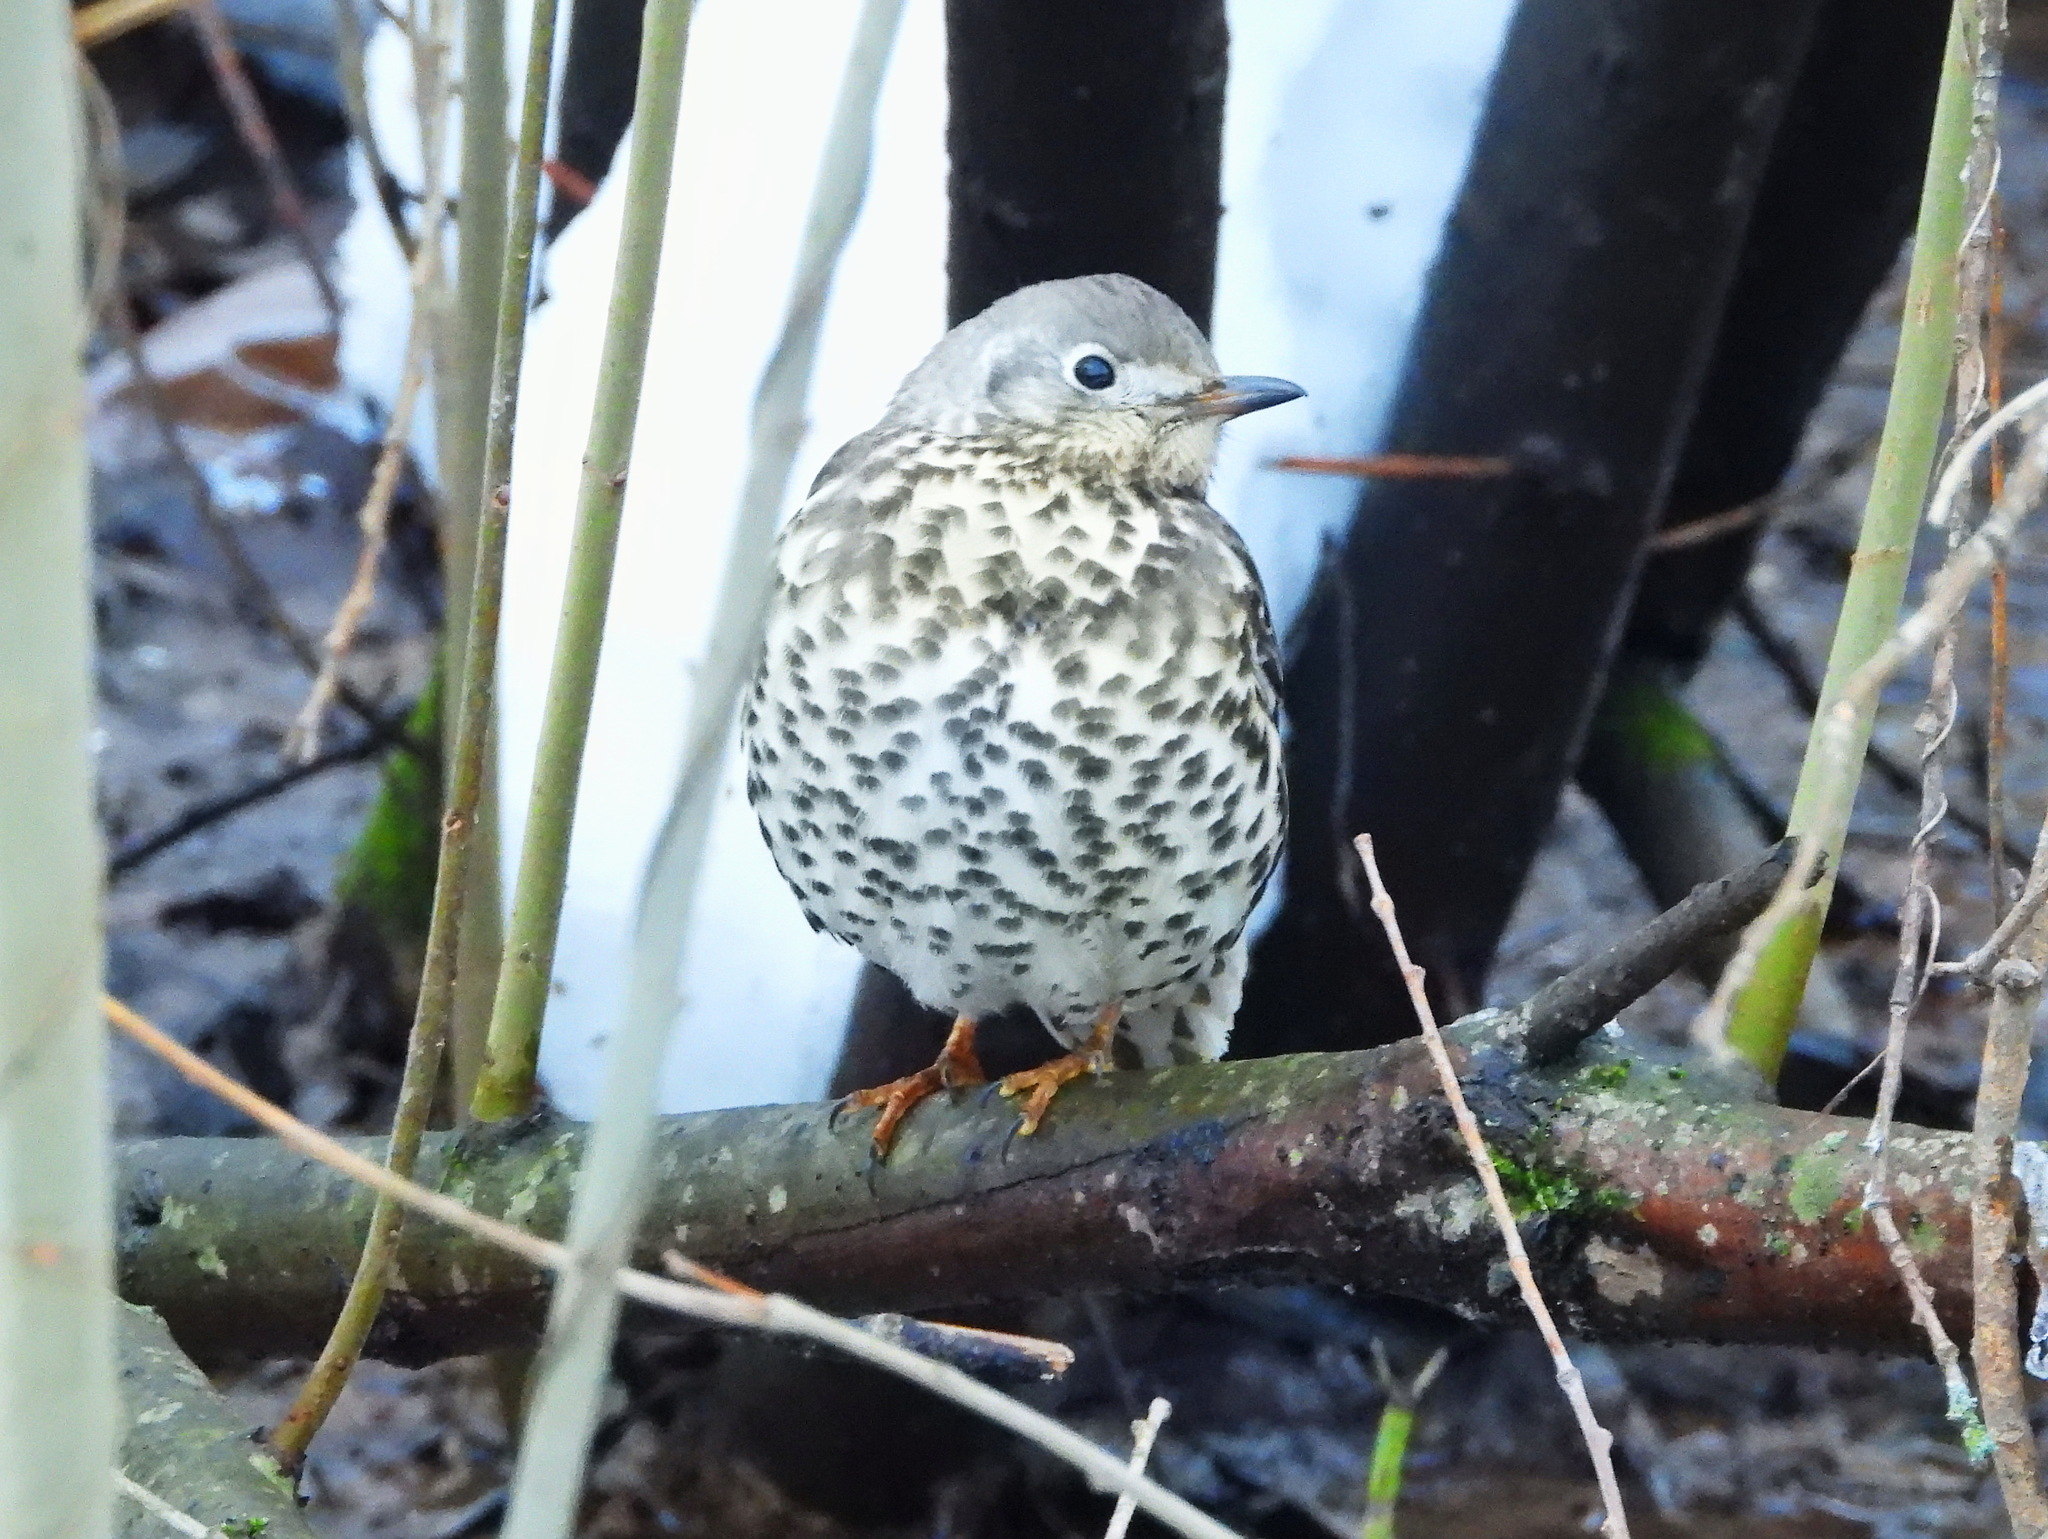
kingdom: Animalia
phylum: Chordata
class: Aves
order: Passeriformes
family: Turdidae
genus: Turdus
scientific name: Turdus viscivorus
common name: Mistle thrush
